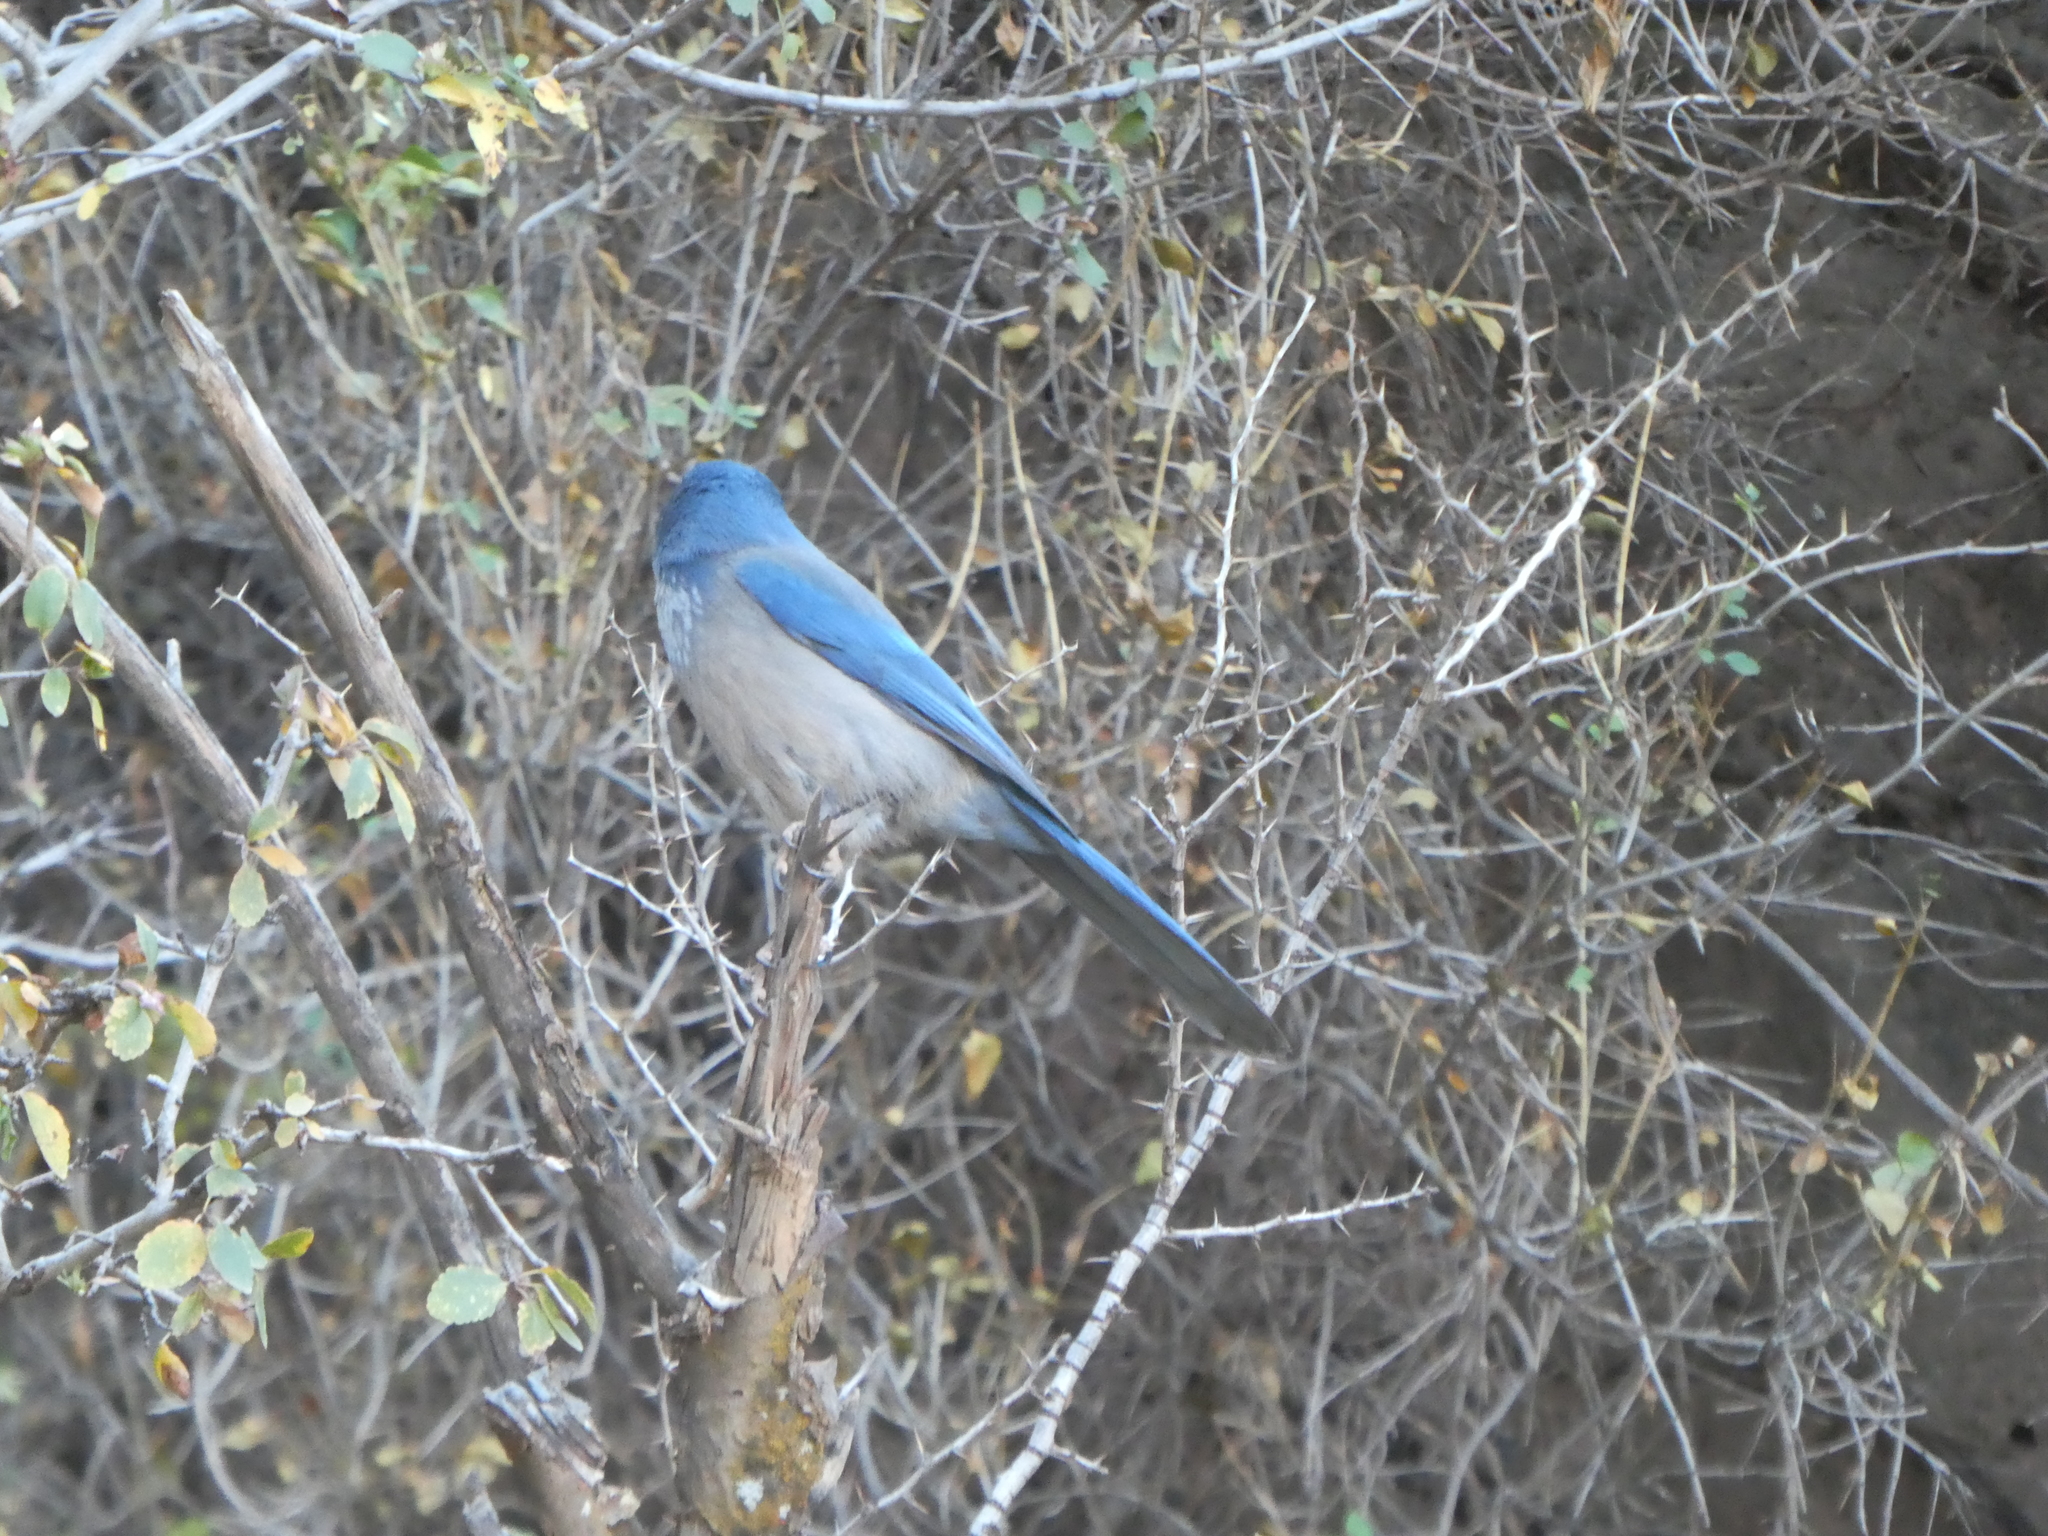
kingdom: Animalia
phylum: Chordata
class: Aves
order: Passeriformes
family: Corvidae
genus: Aphelocoma
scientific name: Aphelocoma woodhouseii
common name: Woodhouse's scrub-jay
